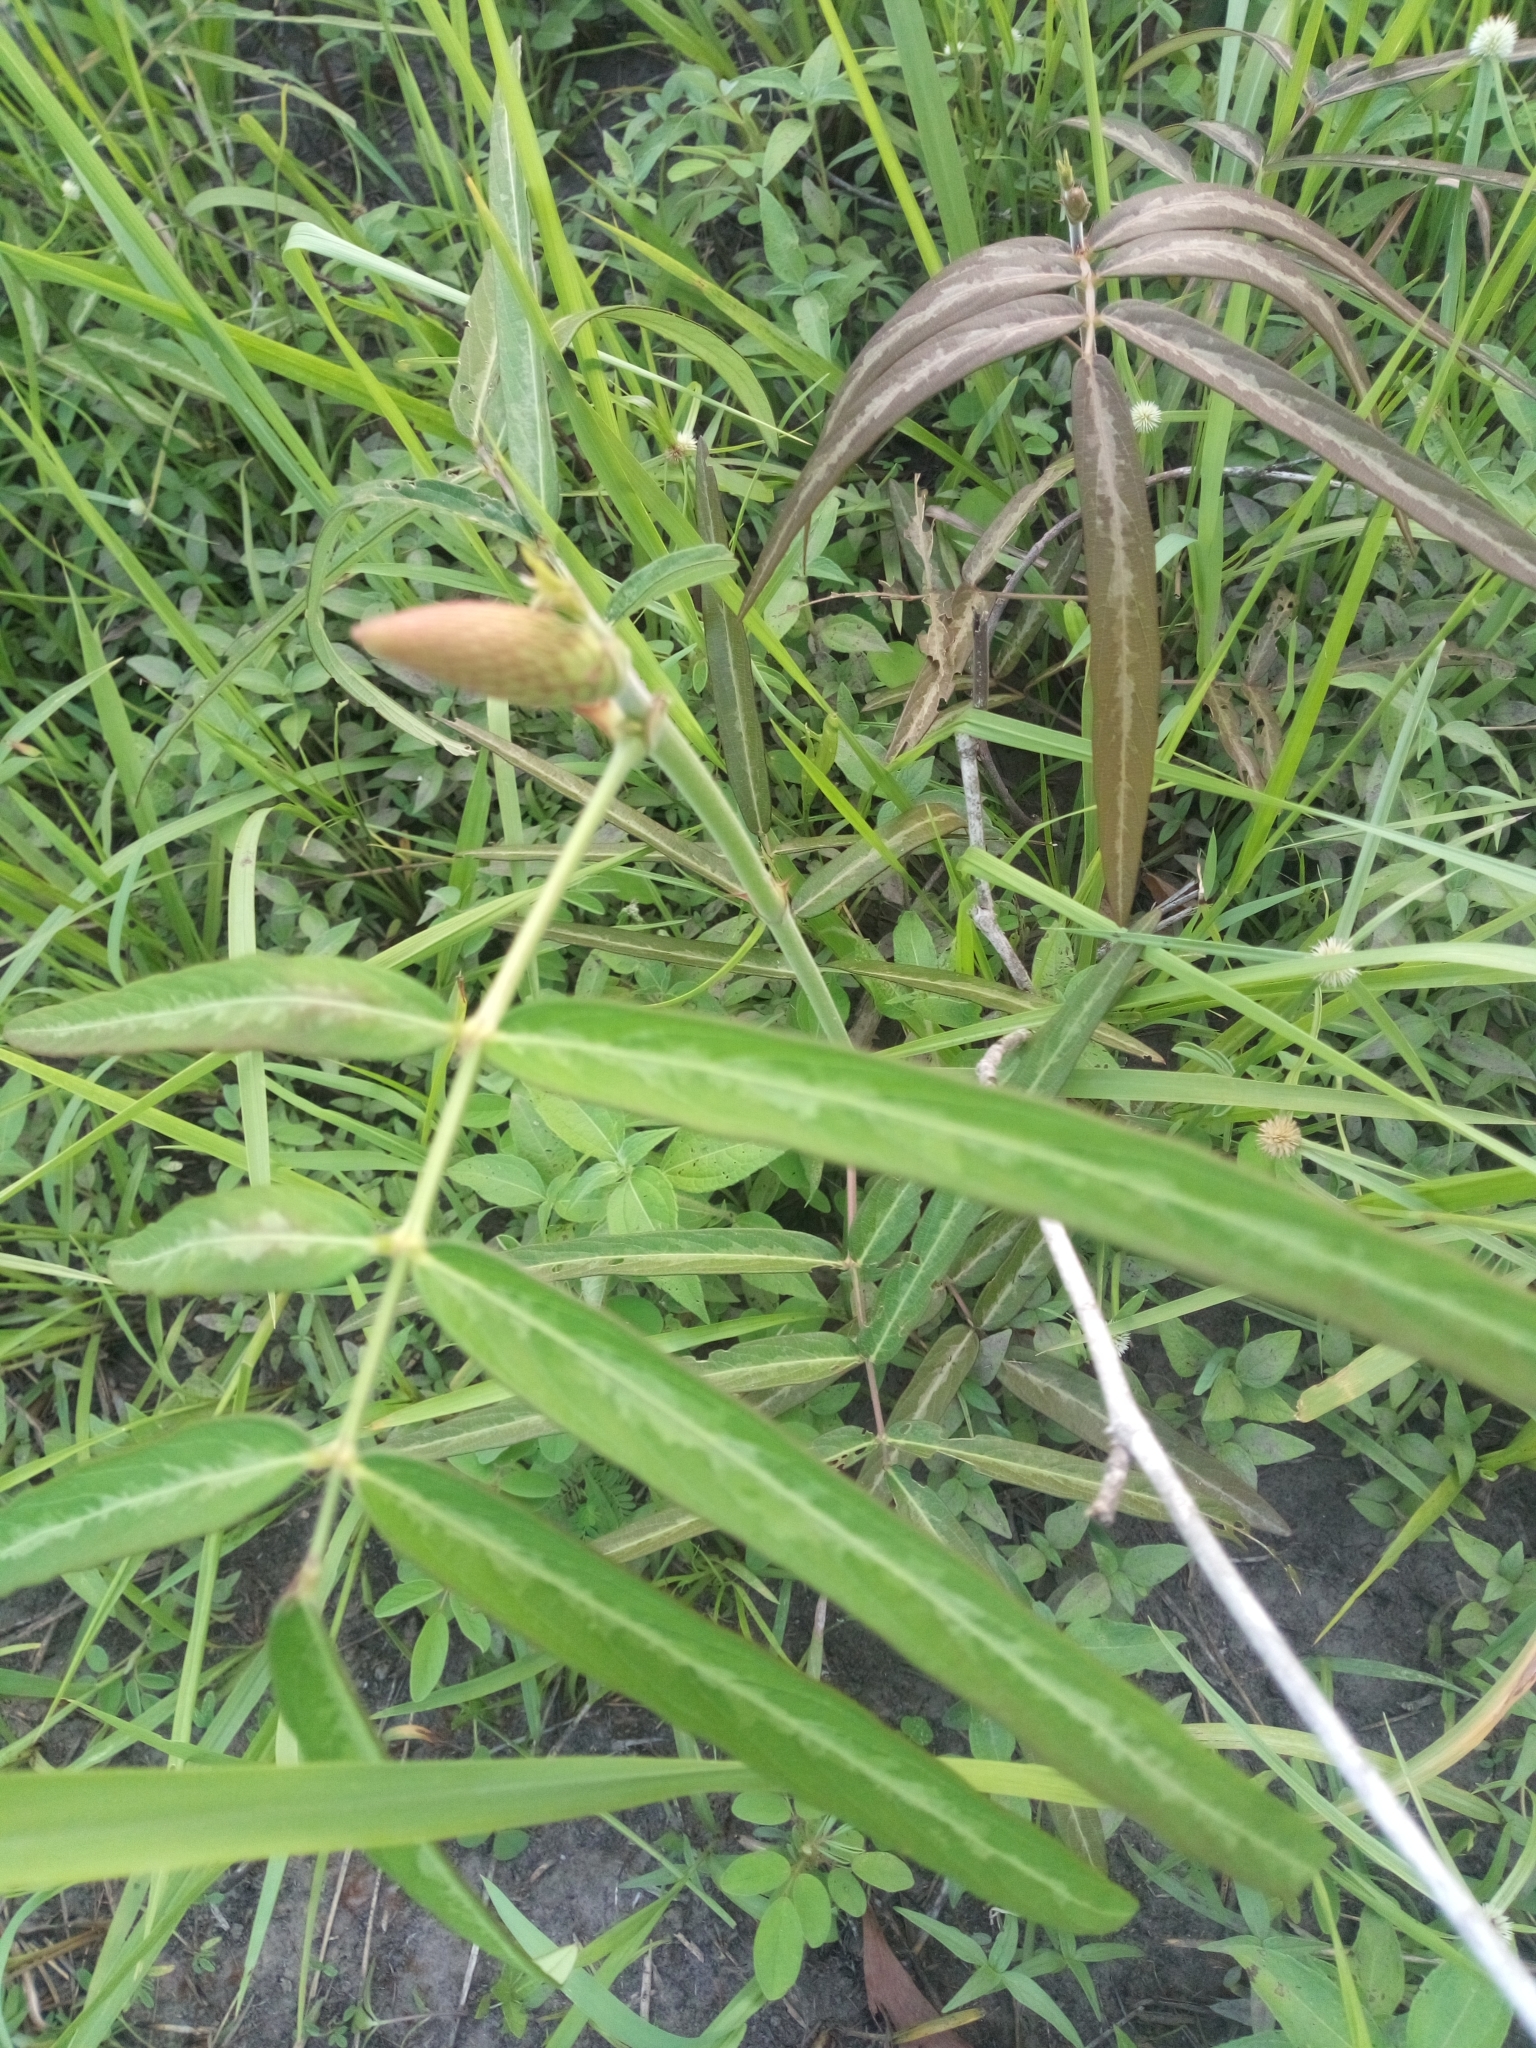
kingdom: Plantae
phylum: Tracheophyta
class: Magnoliopsida
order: Fabales
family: Fabaceae
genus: Uraria
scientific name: Uraria picta
